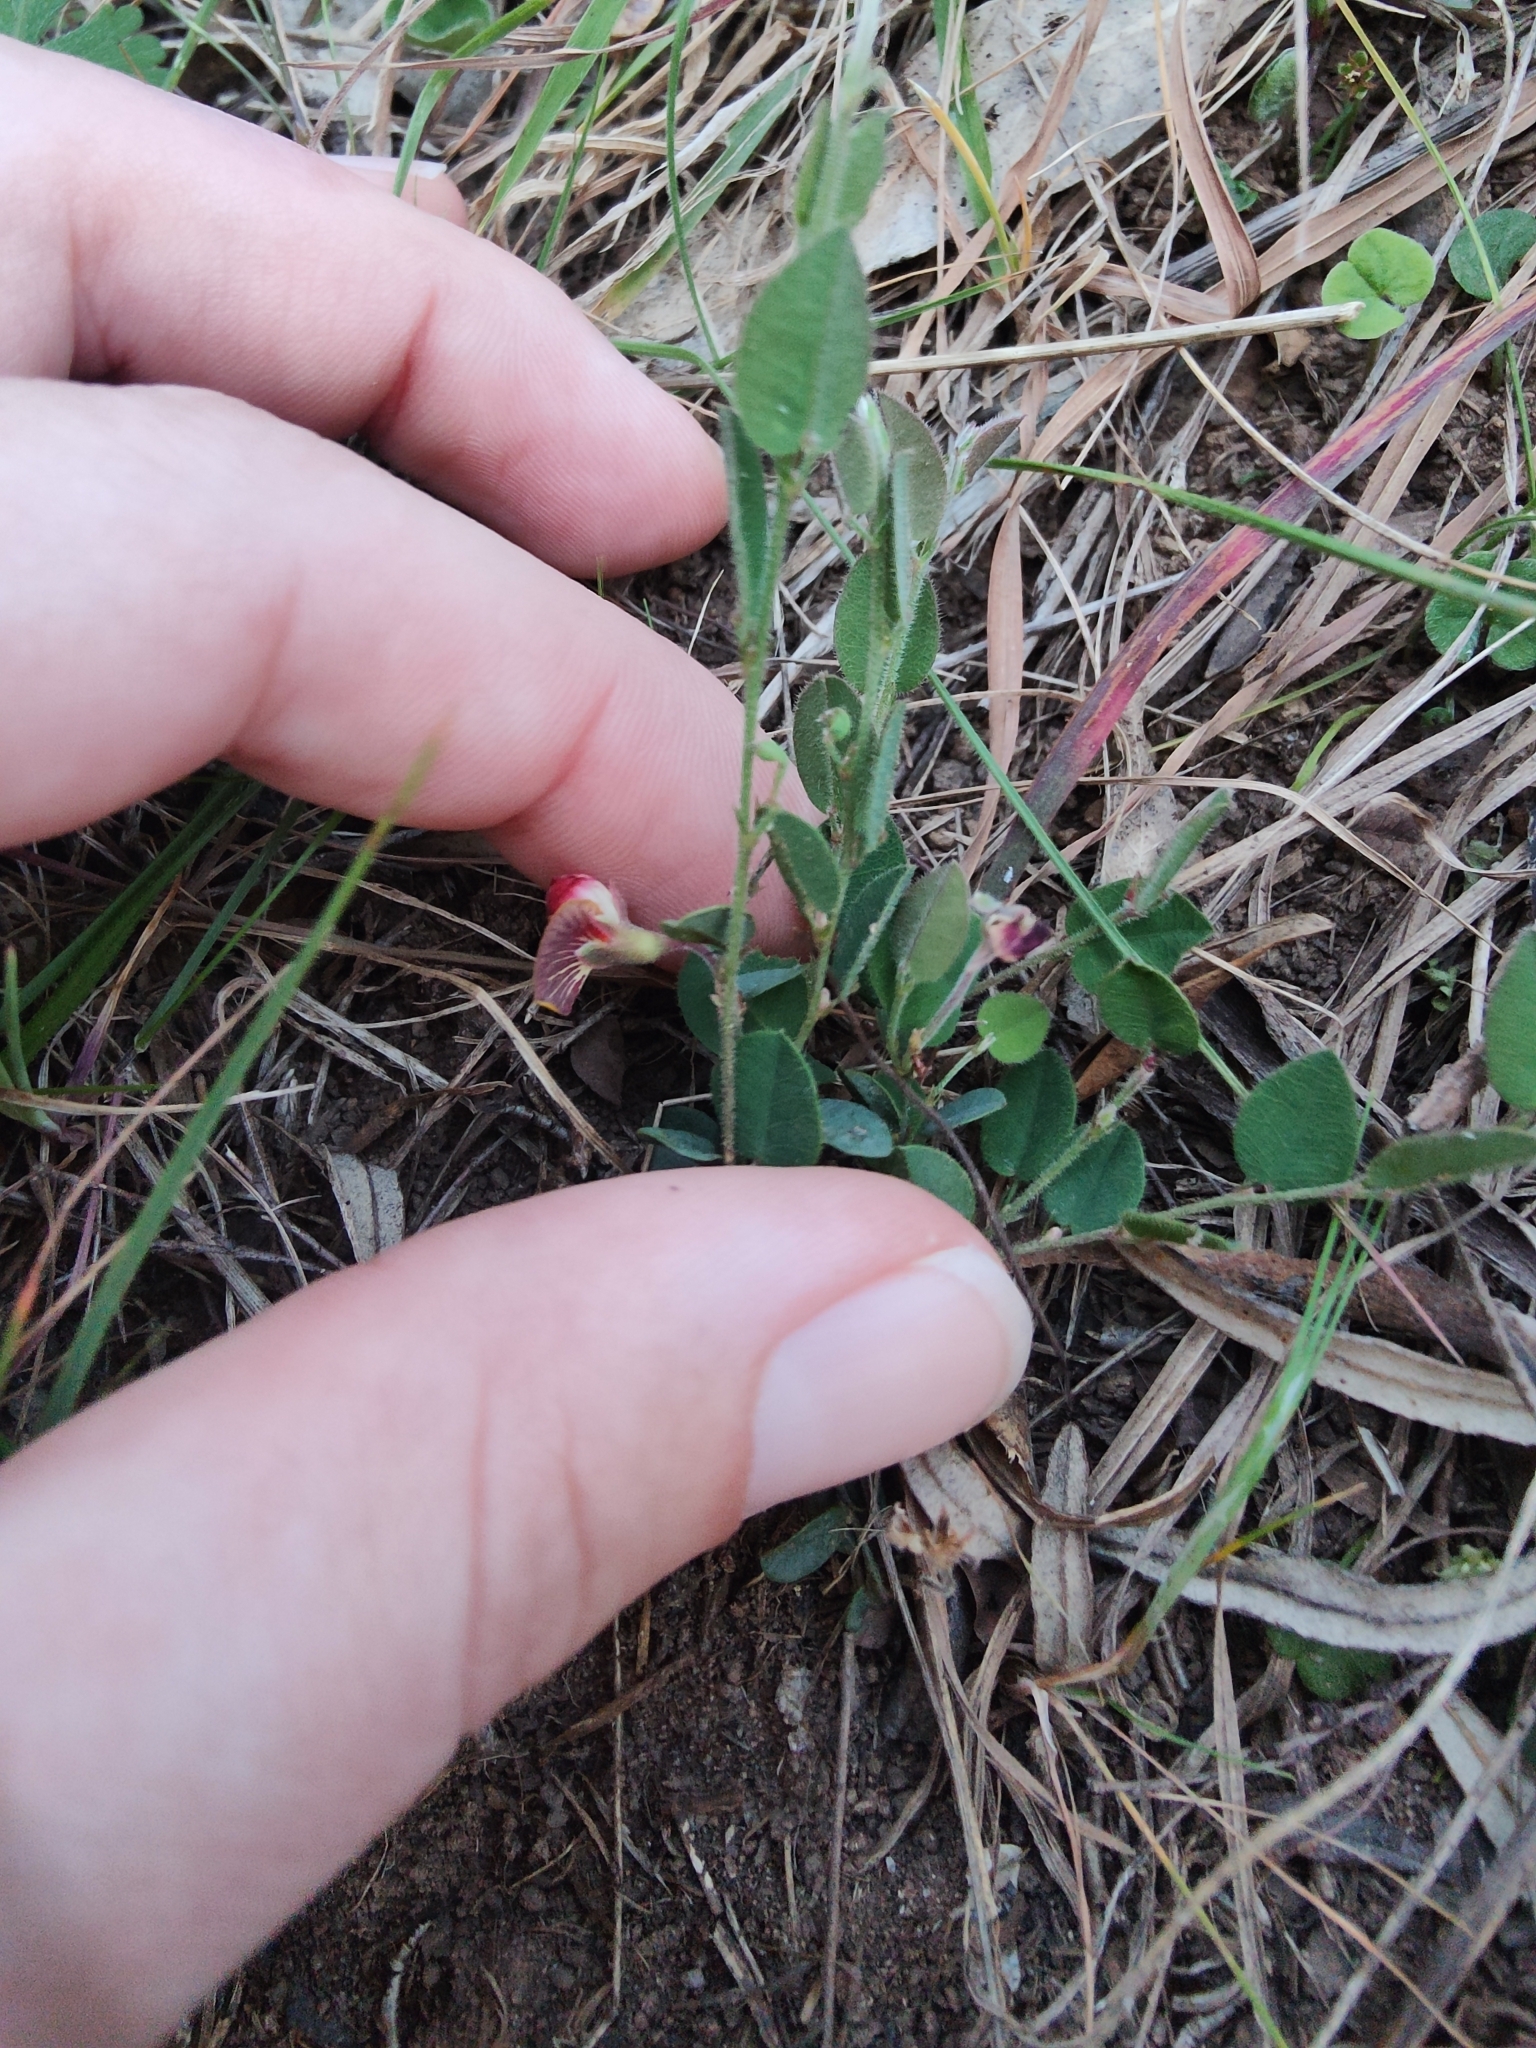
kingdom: Plantae
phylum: Tracheophyta
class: Magnoliopsida
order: Fabales
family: Fabaceae
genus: Bossiaea
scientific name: Bossiaea prostrata
